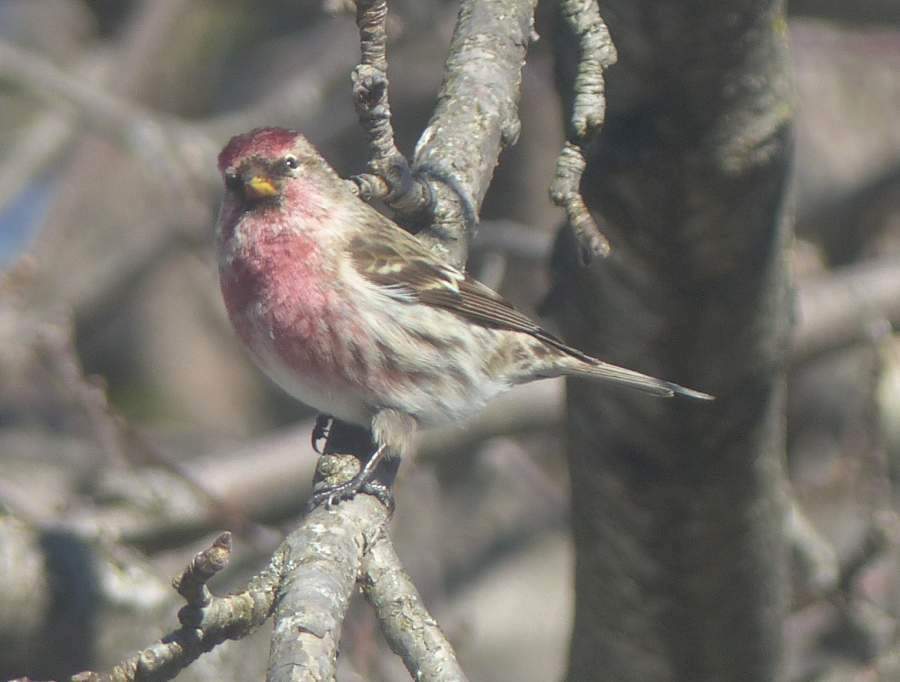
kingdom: Animalia
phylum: Chordata
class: Aves
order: Passeriformes
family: Fringillidae
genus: Acanthis
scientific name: Acanthis flammea
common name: Common redpoll
